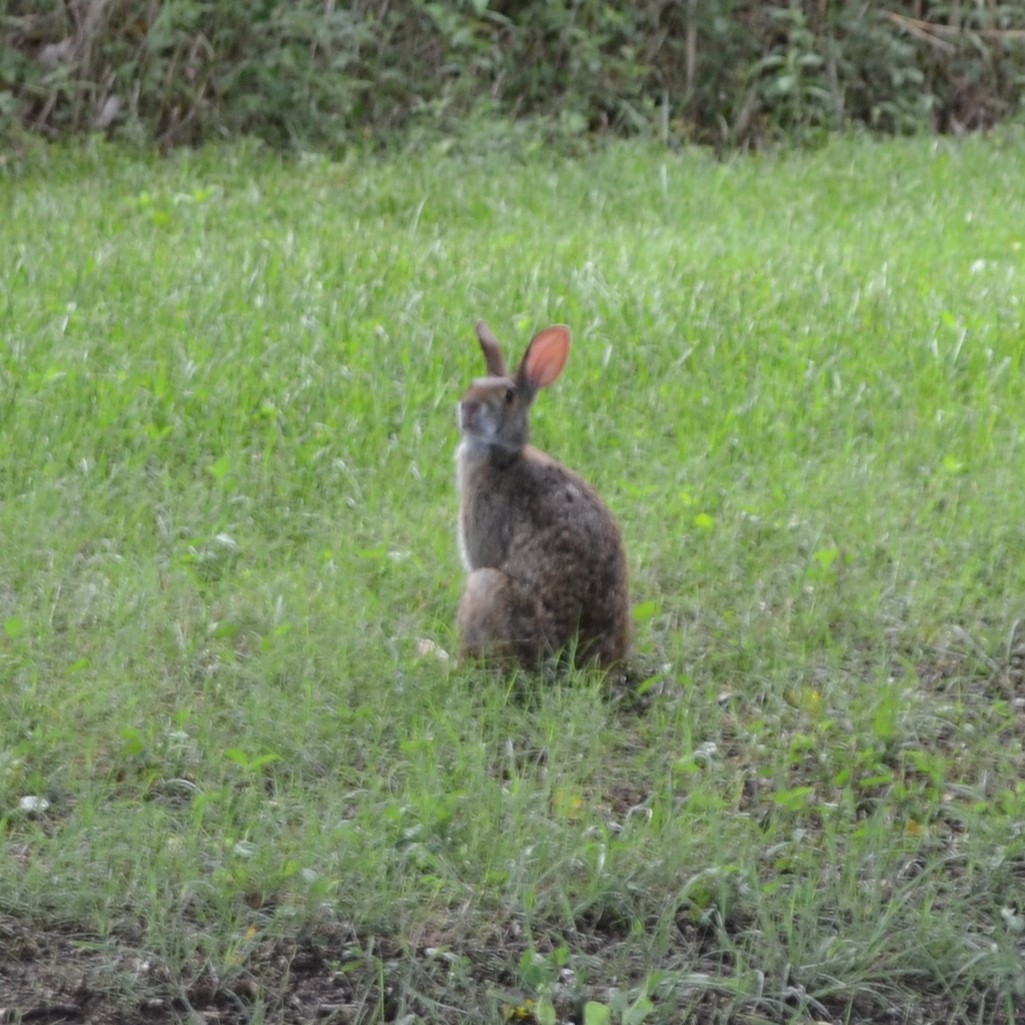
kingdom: Animalia
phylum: Chordata
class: Mammalia
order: Lagomorpha
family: Leporidae
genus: Sylvilagus
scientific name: Sylvilagus aquaticus
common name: Swamp rabbit
